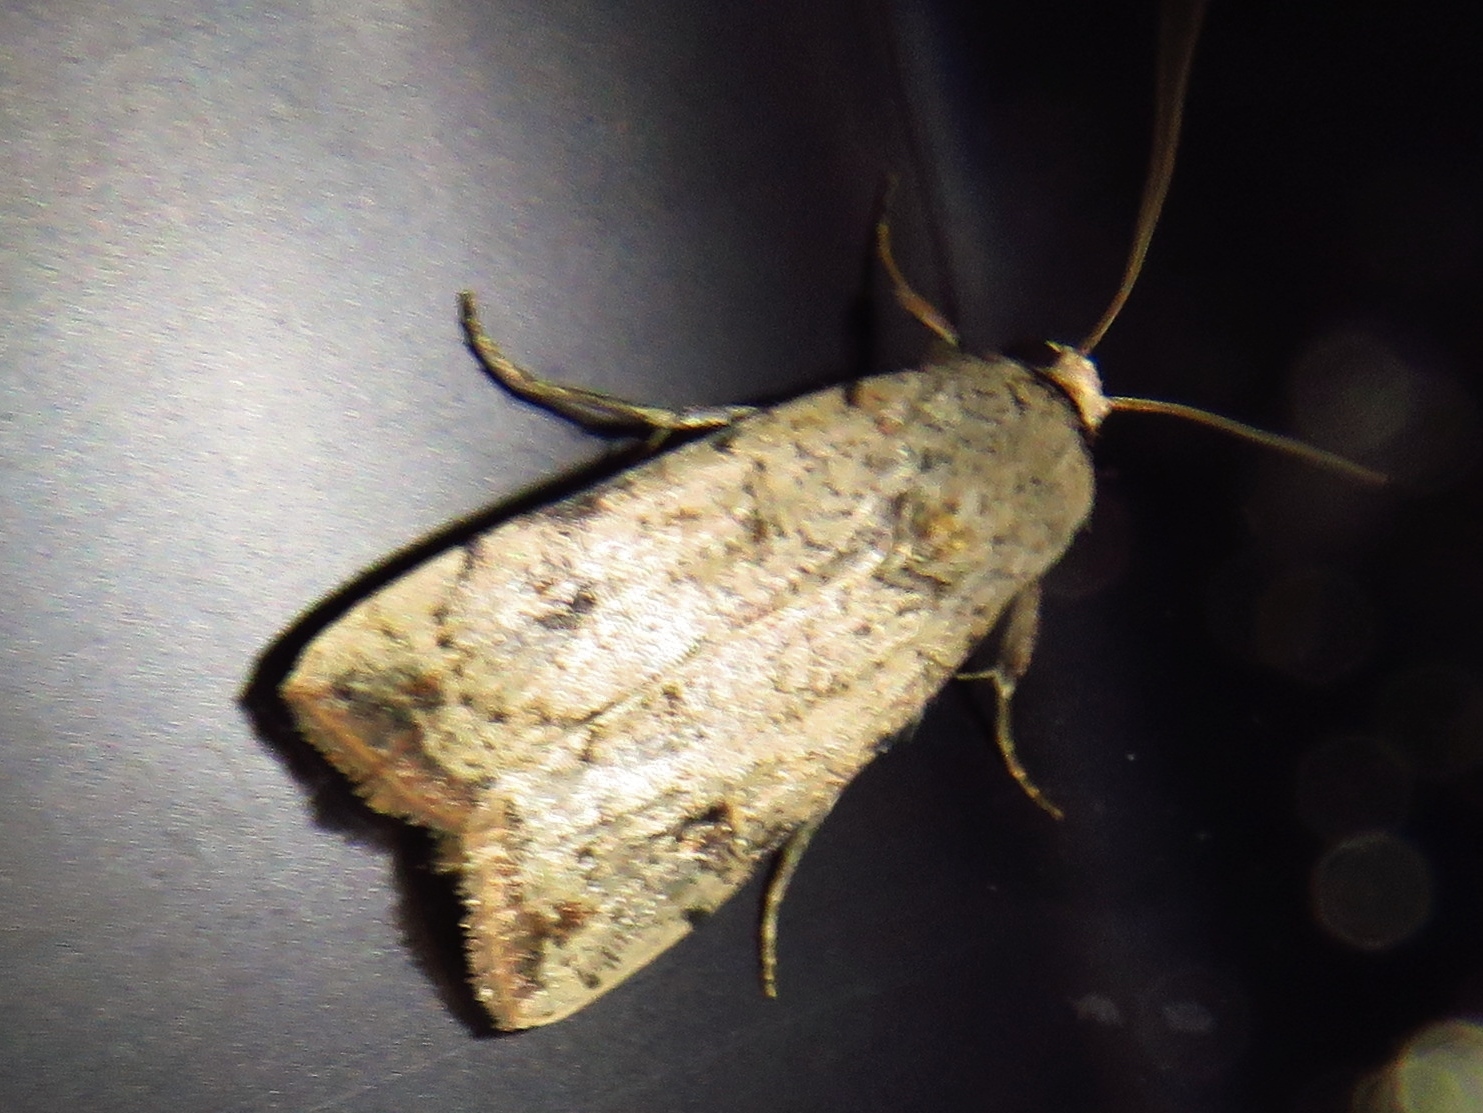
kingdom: Animalia
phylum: Arthropoda
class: Insecta
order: Lepidoptera
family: Noctuidae
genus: Anicla
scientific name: Anicla infecta
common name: Green cutworm
